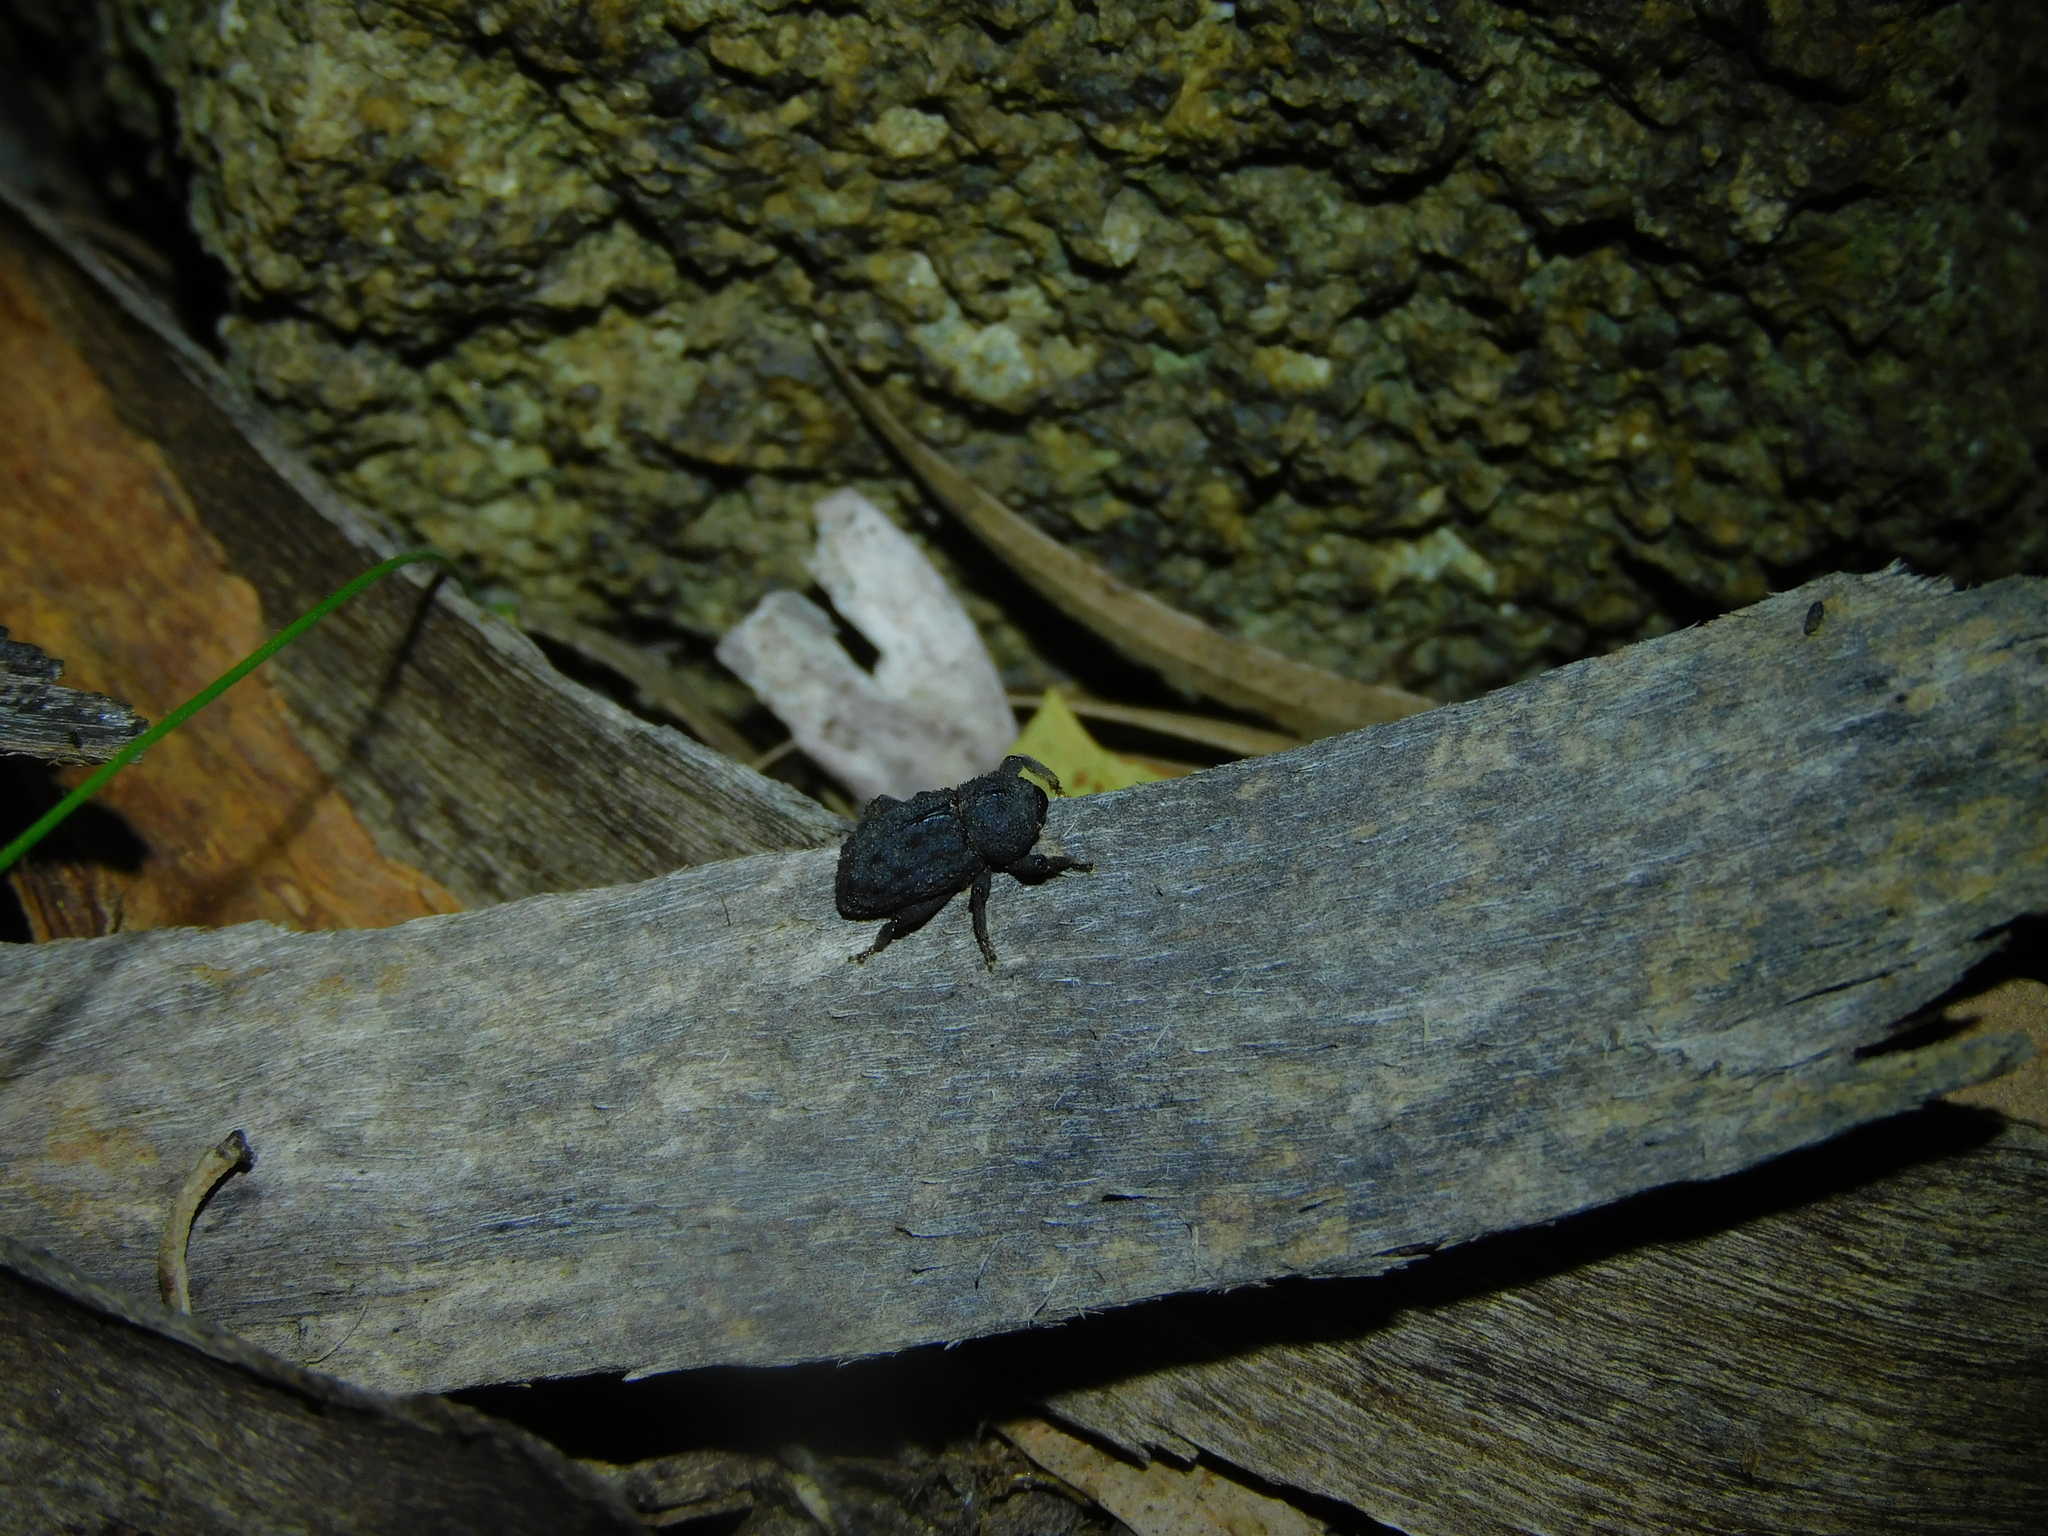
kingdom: Animalia
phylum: Arthropoda
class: Insecta
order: Coleoptera
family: Curculionidae
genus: Poropterus
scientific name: Poropterus melancholicus
